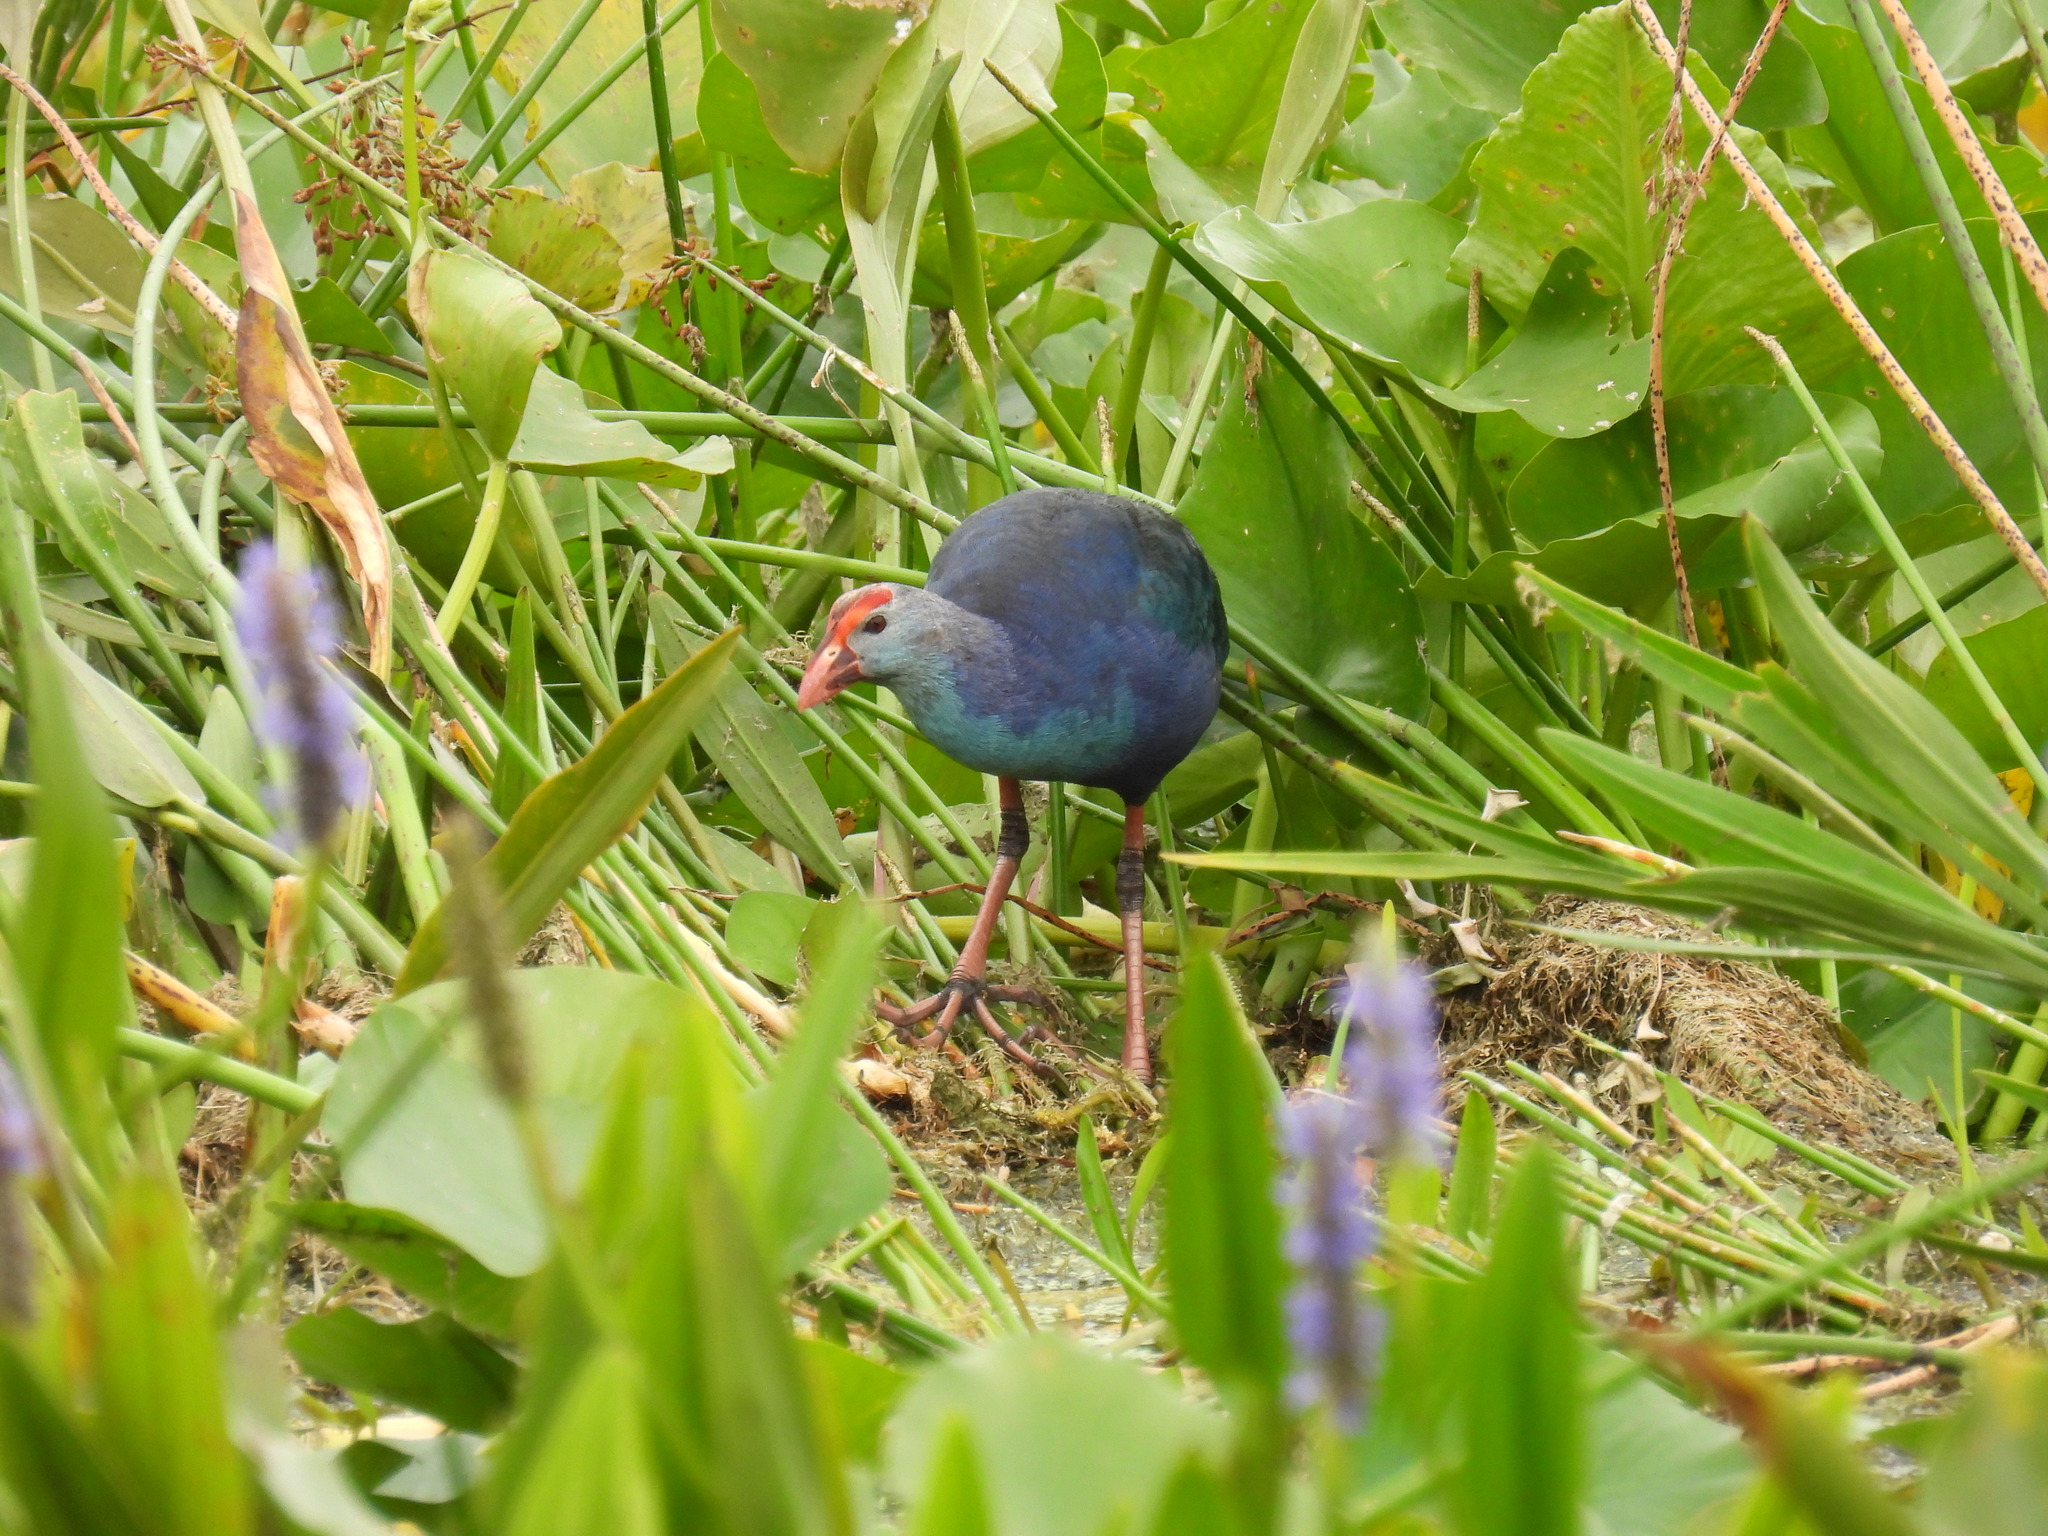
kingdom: Animalia
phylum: Chordata
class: Aves
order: Gruiformes
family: Rallidae
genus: Porphyrio
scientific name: Porphyrio porphyrio
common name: Purple swamphen
